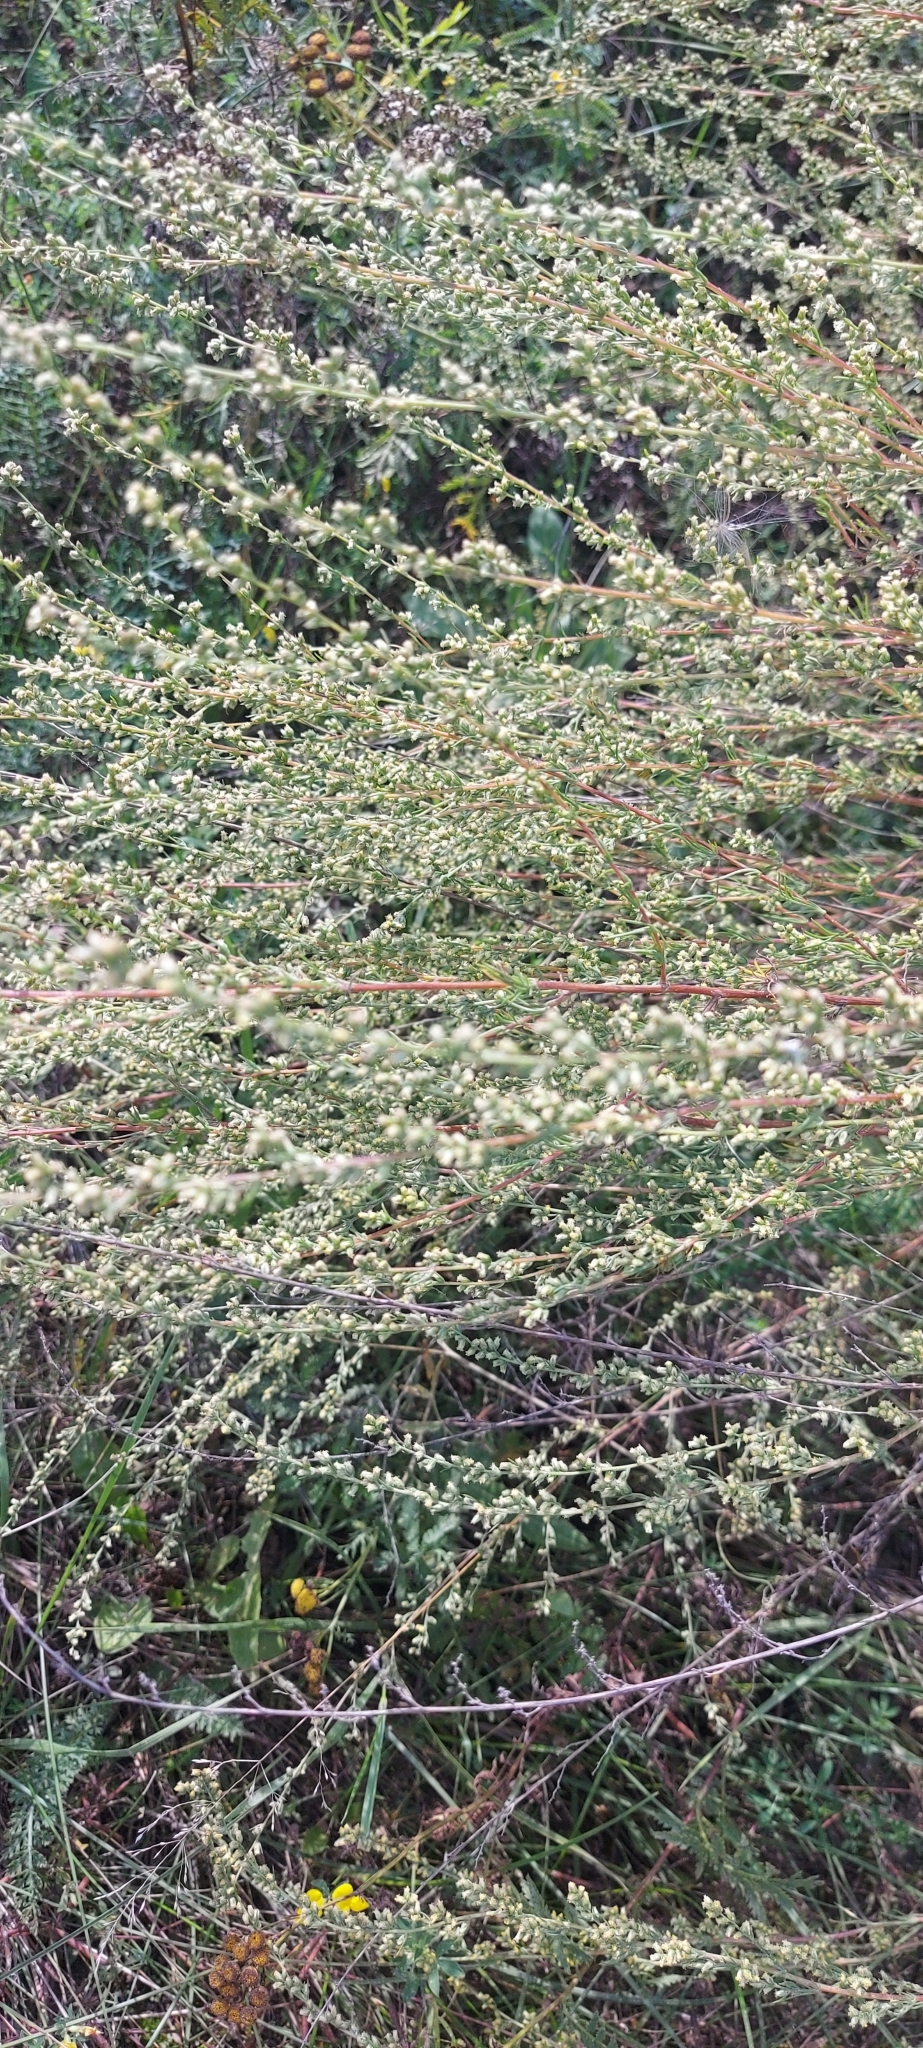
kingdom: Plantae
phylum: Tracheophyta
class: Magnoliopsida
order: Asterales
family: Asteraceae
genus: Artemisia
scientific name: Artemisia campestris
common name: Field wormwood
